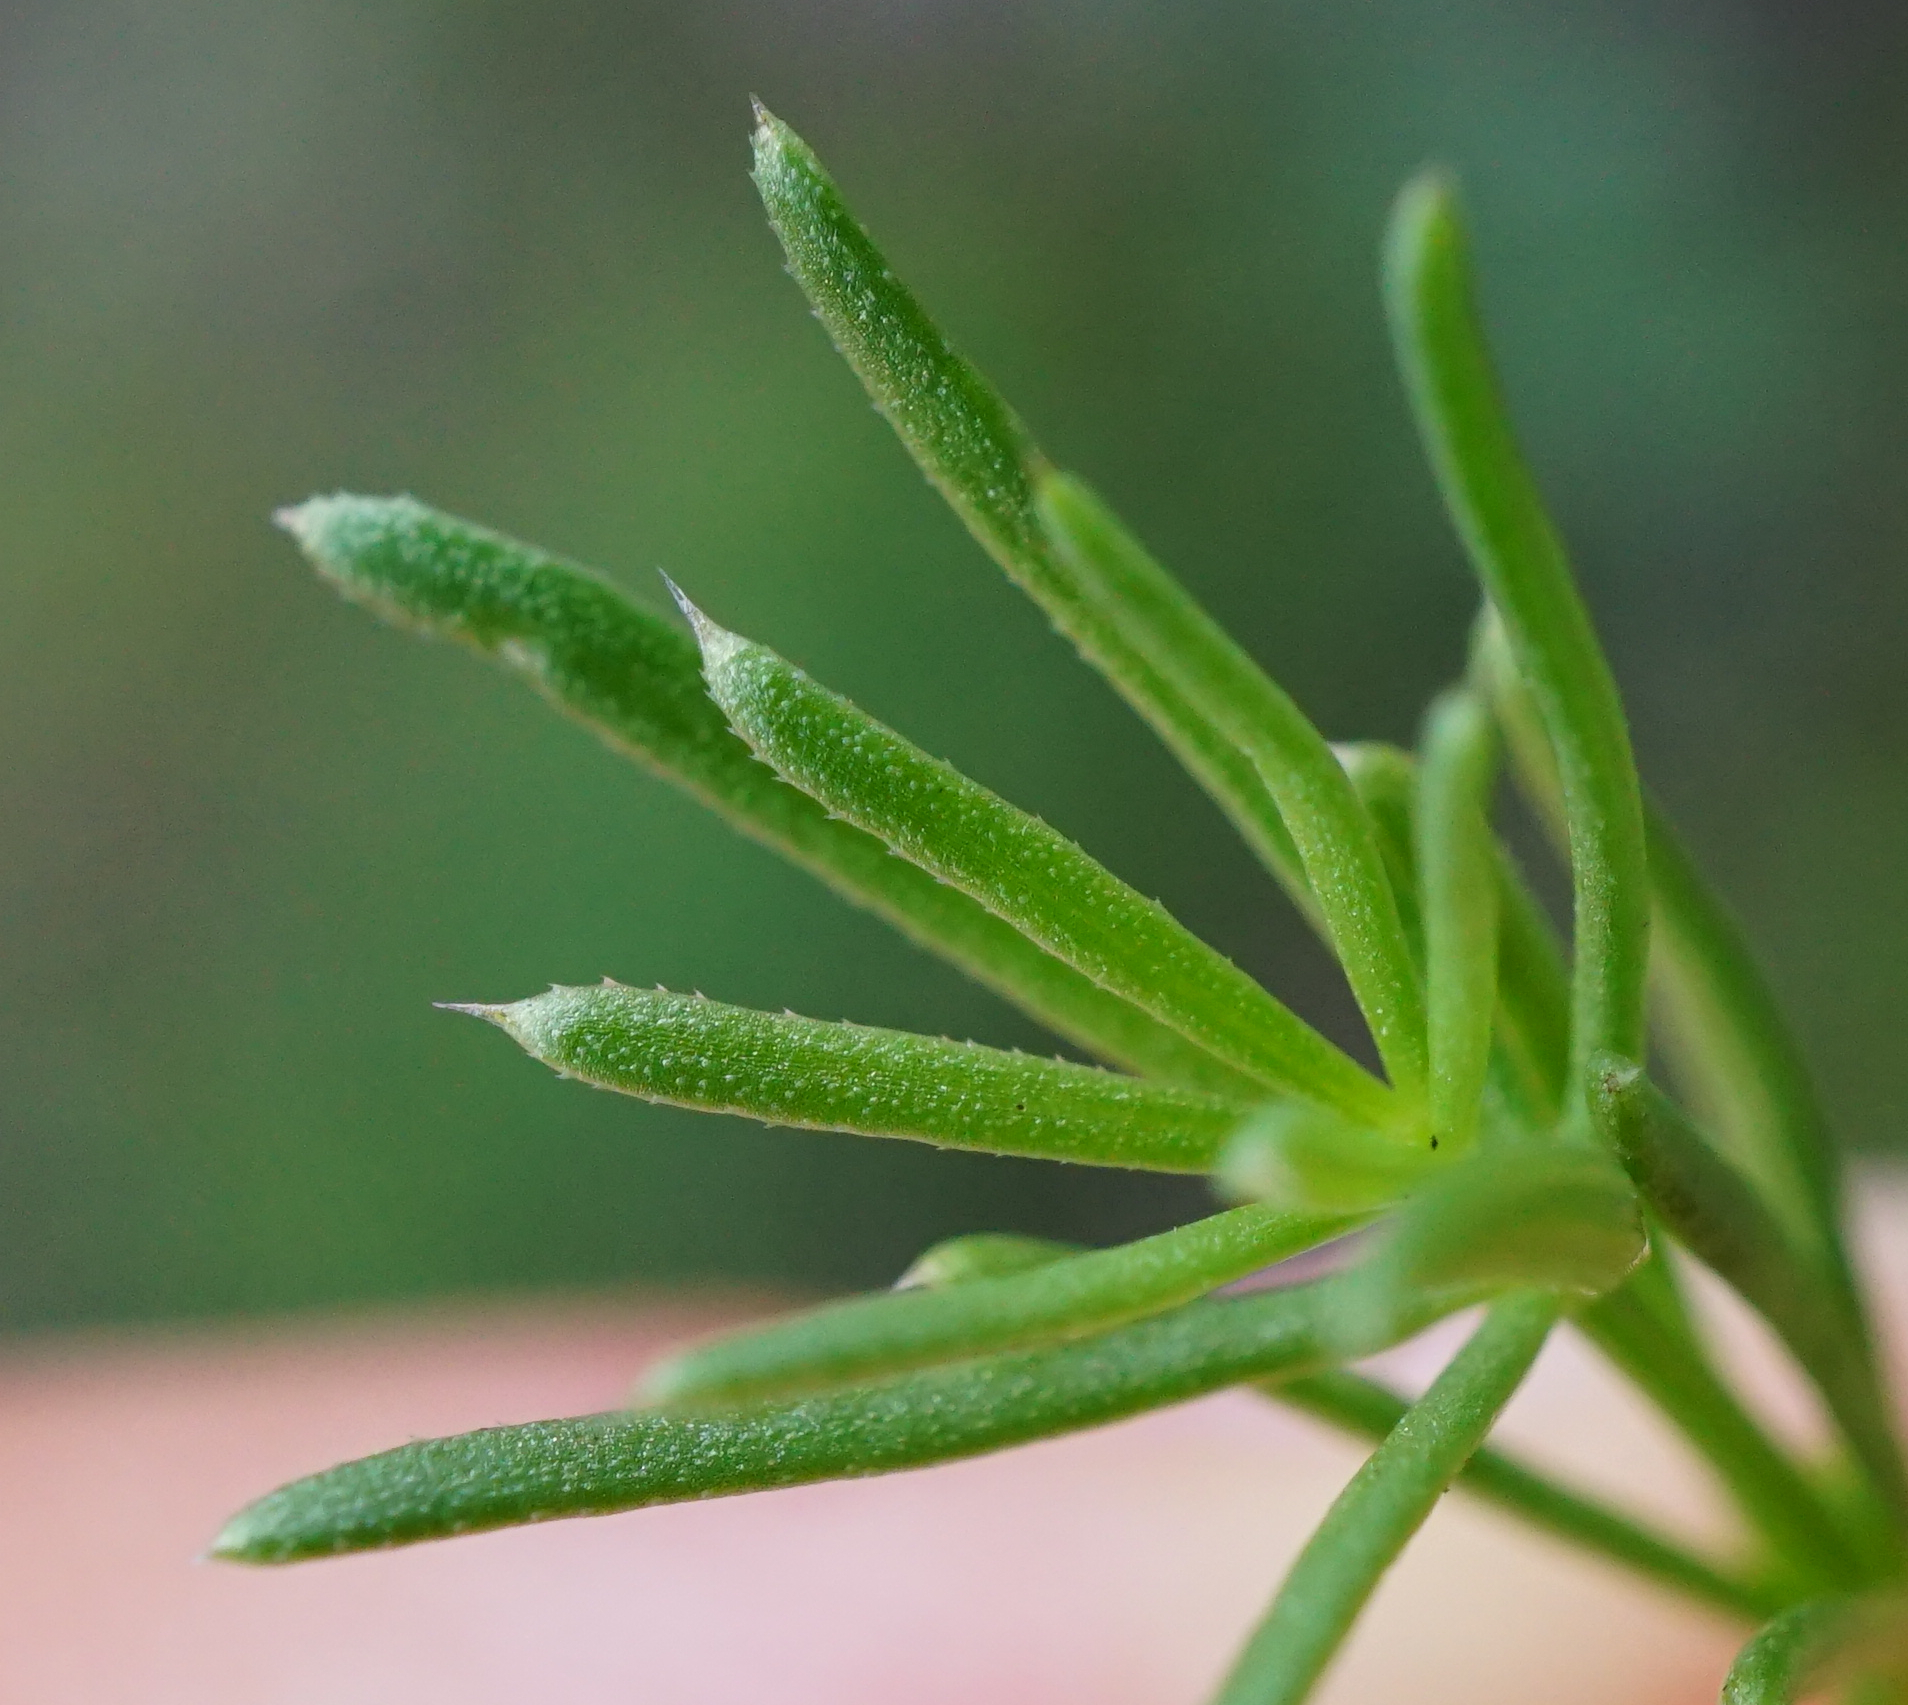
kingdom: Plantae
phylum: Tracheophyta
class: Magnoliopsida
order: Gentianales
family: Rubiaceae
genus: Galium
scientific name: Galium lucidum
